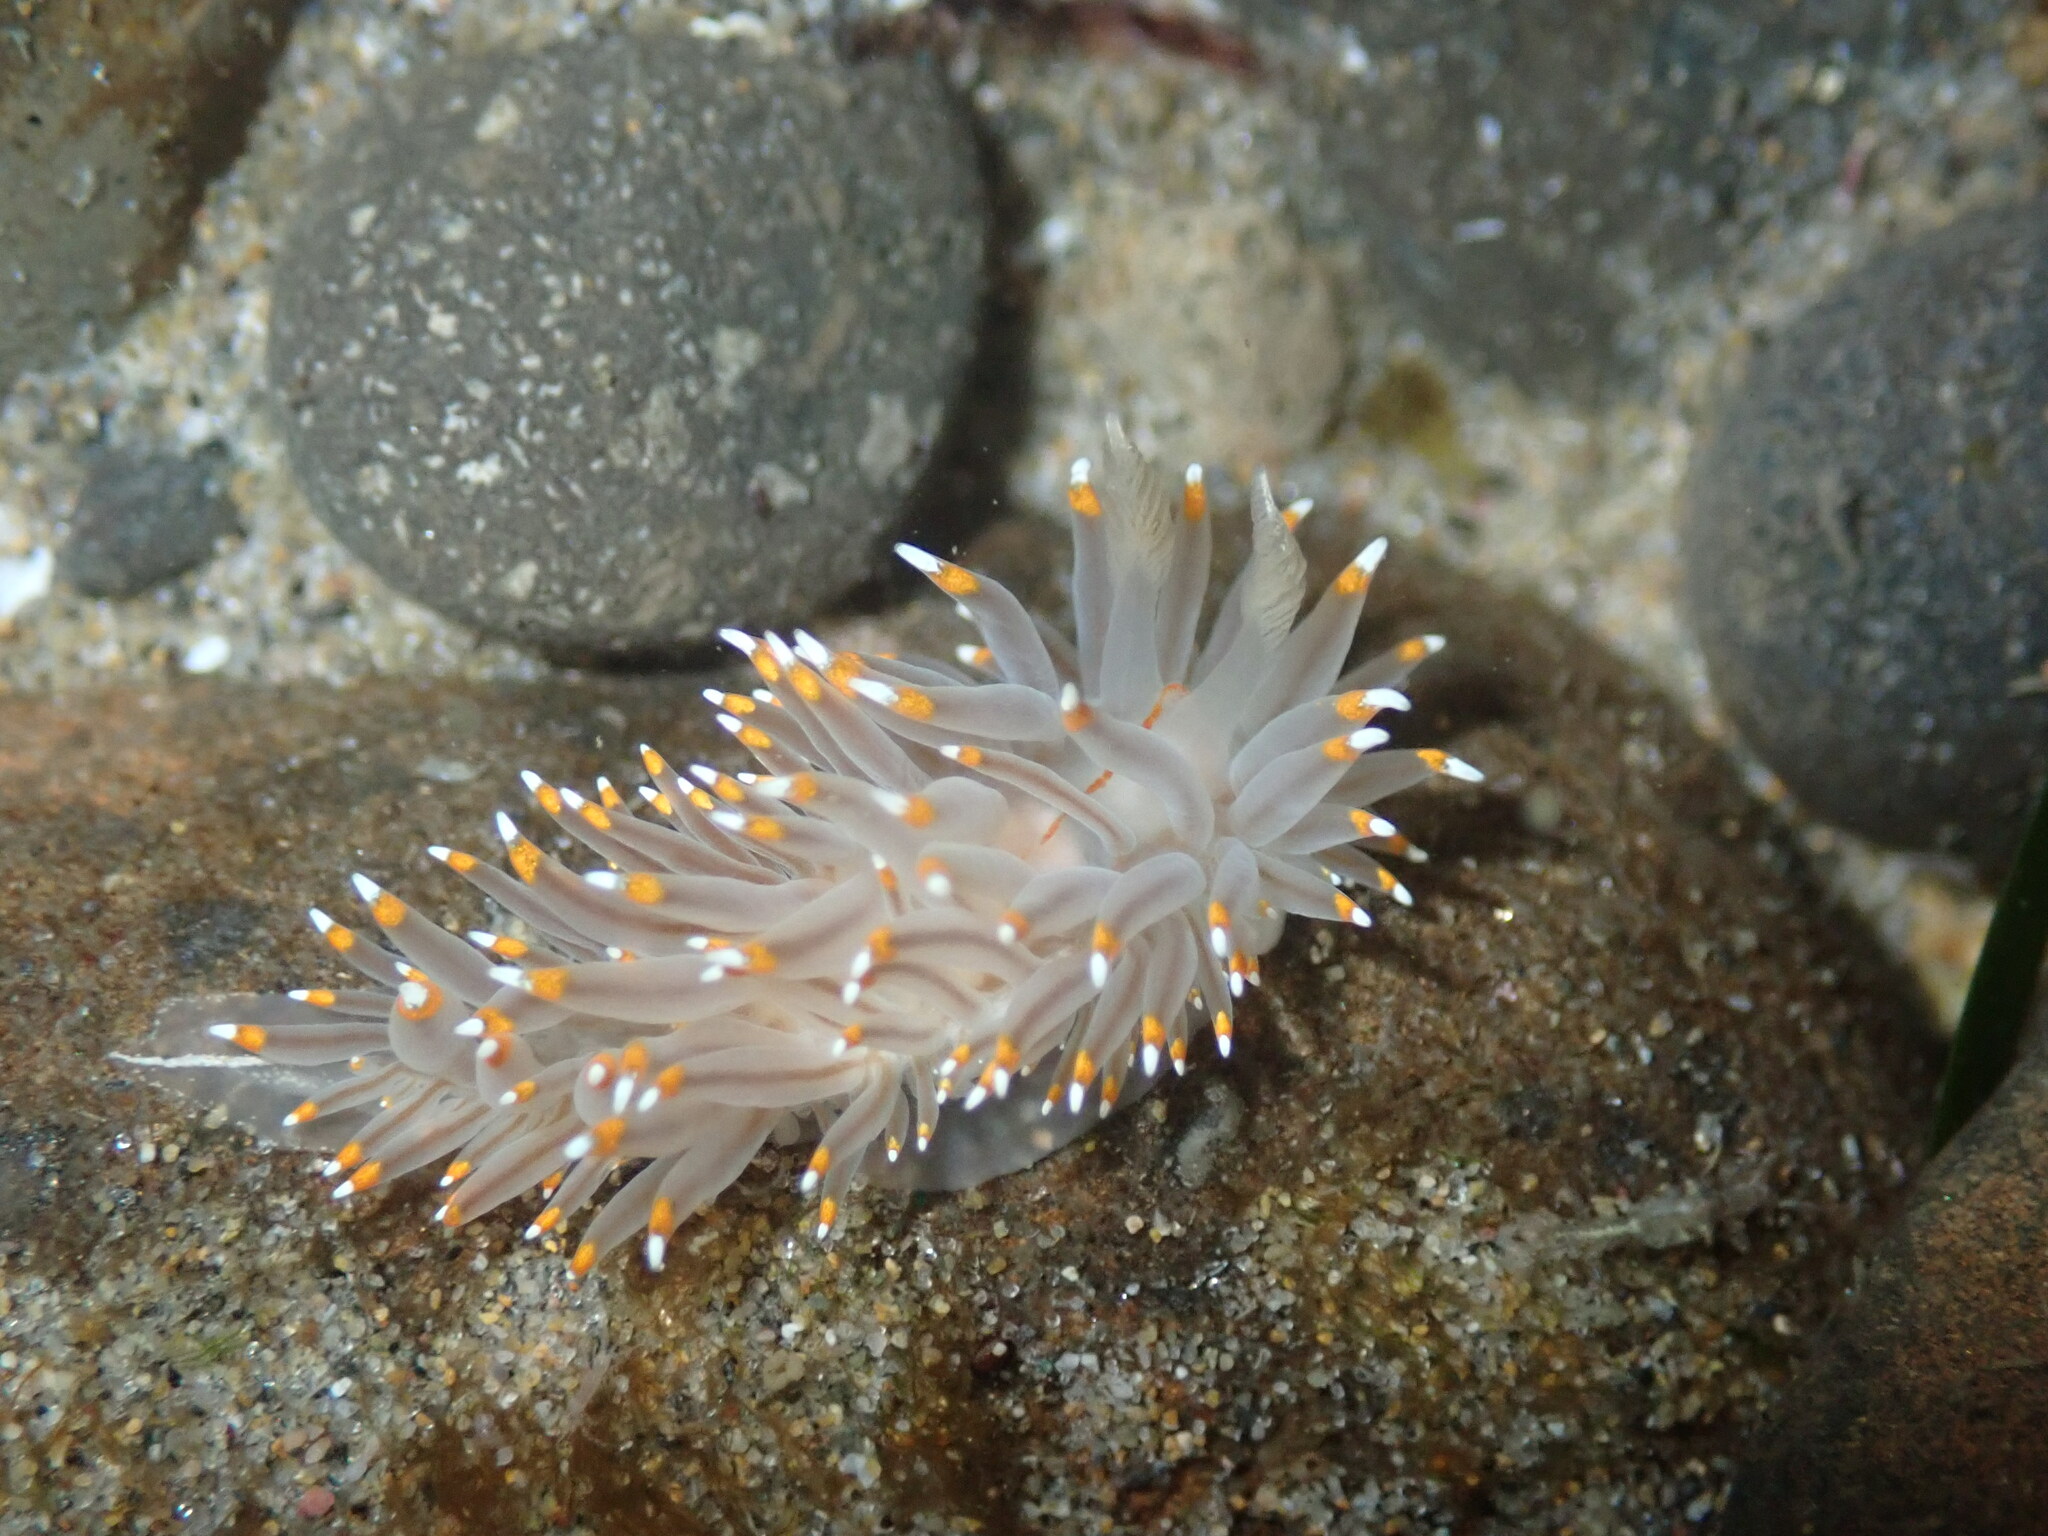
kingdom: Animalia
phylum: Mollusca
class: Gastropoda
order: Nudibranchia
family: Janolidae
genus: Antiopella
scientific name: Antiopella fusca
